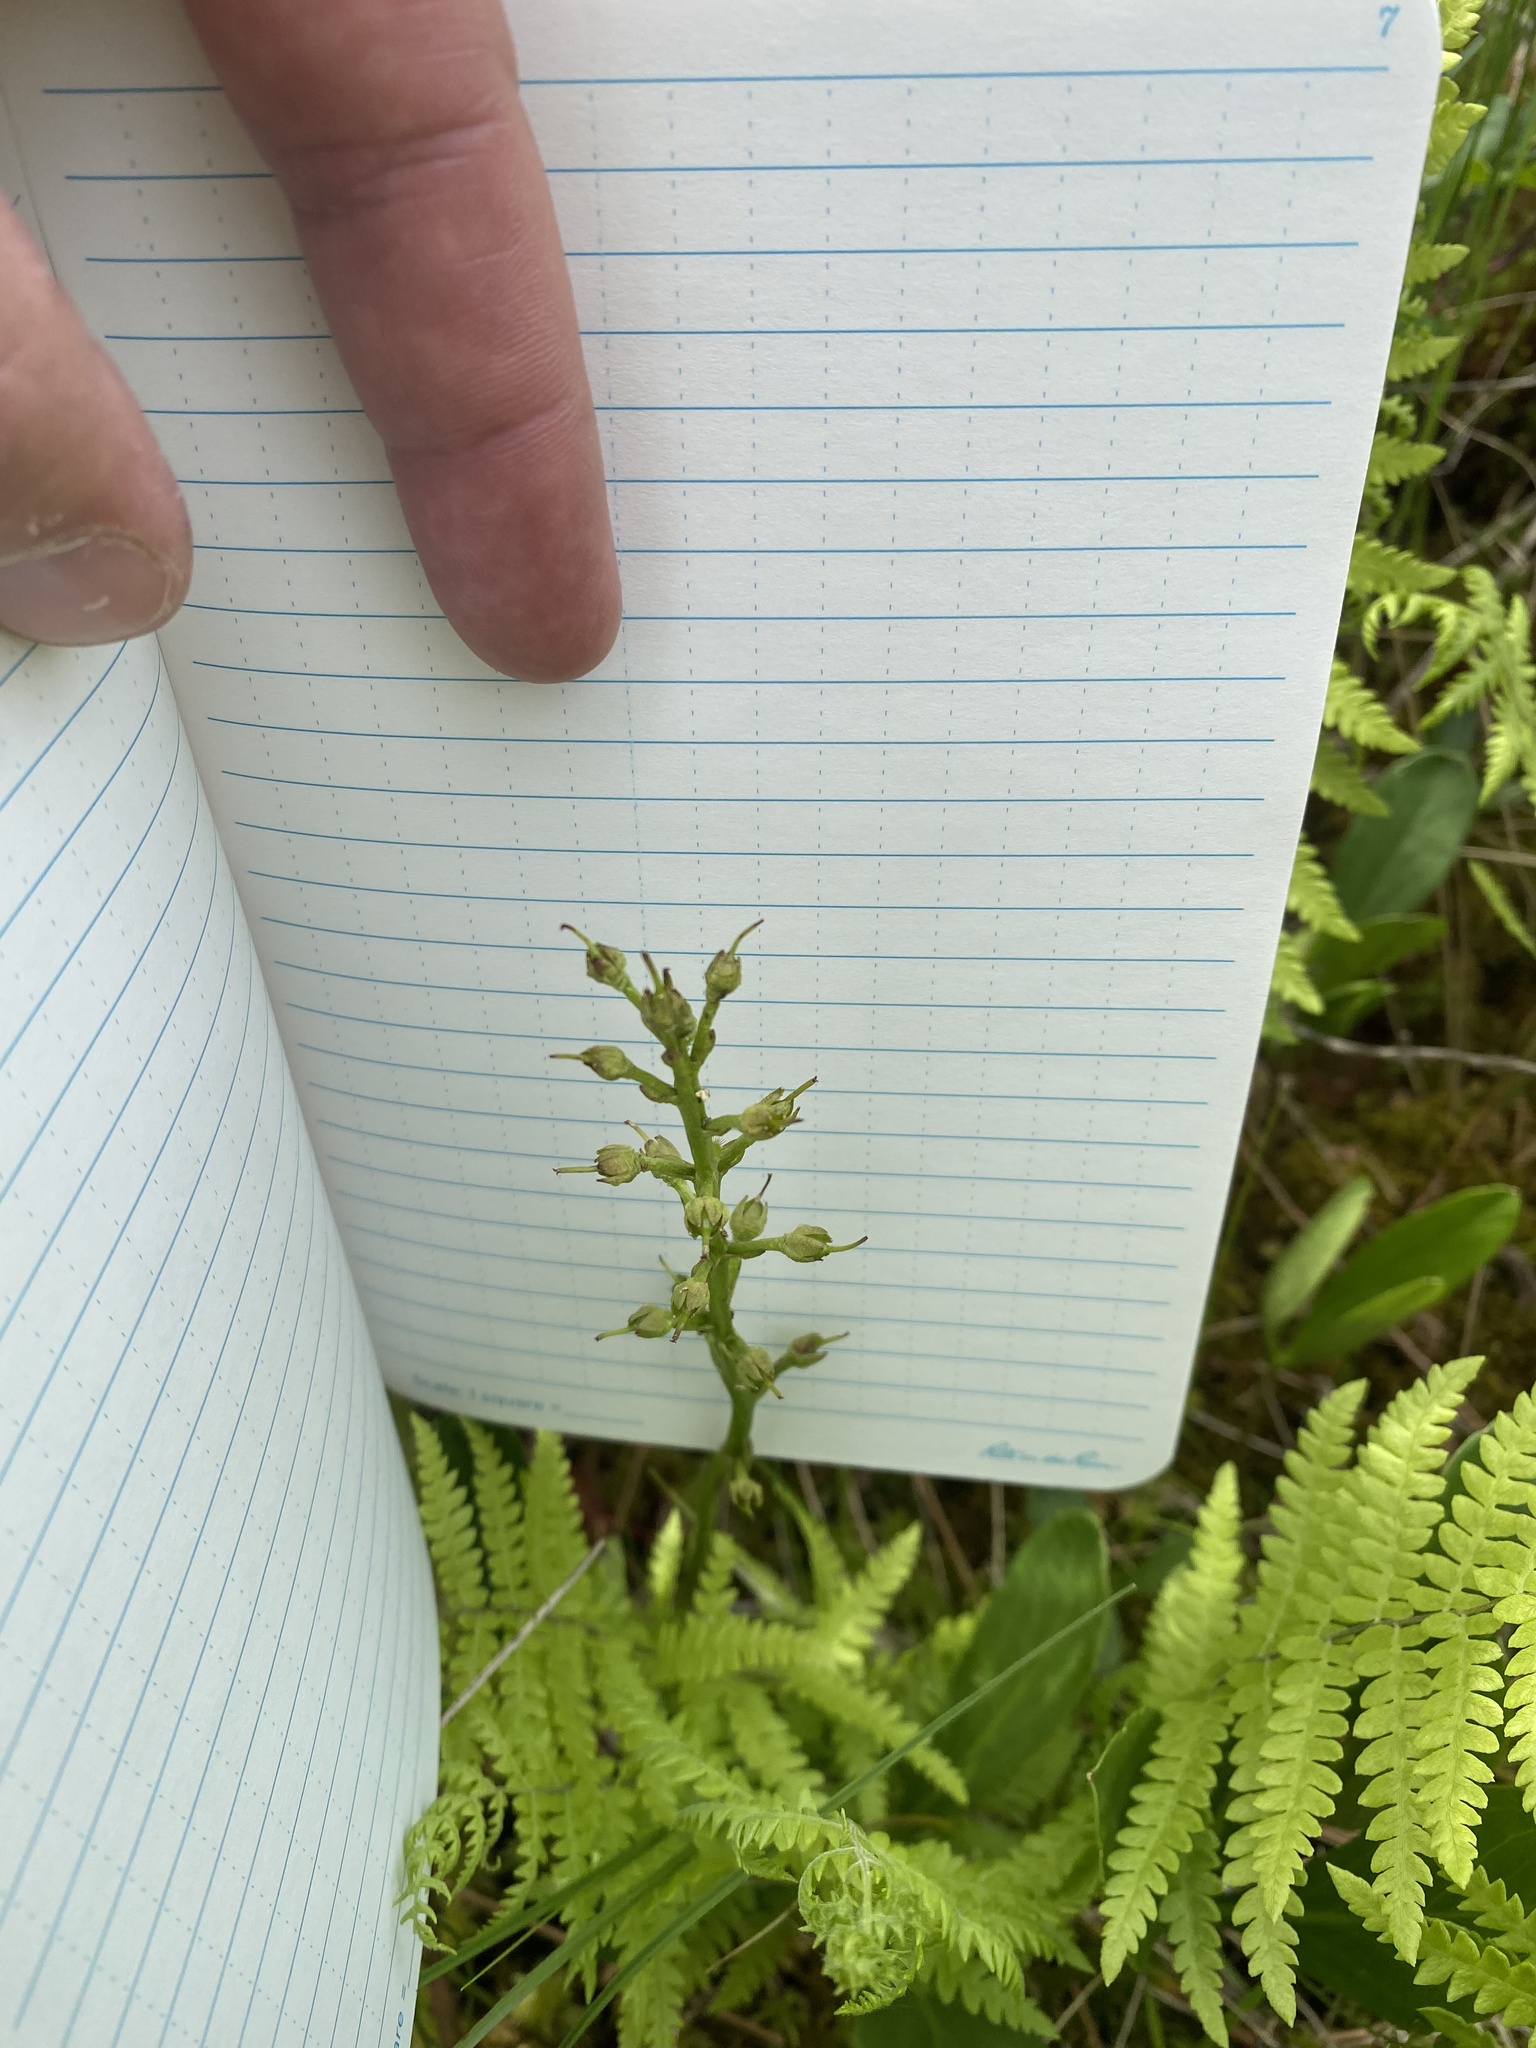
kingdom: Plantae
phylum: Tracheophyta
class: Magnoliopsida
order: Asterales
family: Menyanthaceae
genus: Menyanthes
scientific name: Menyanthes trifoliata
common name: Bogbean
